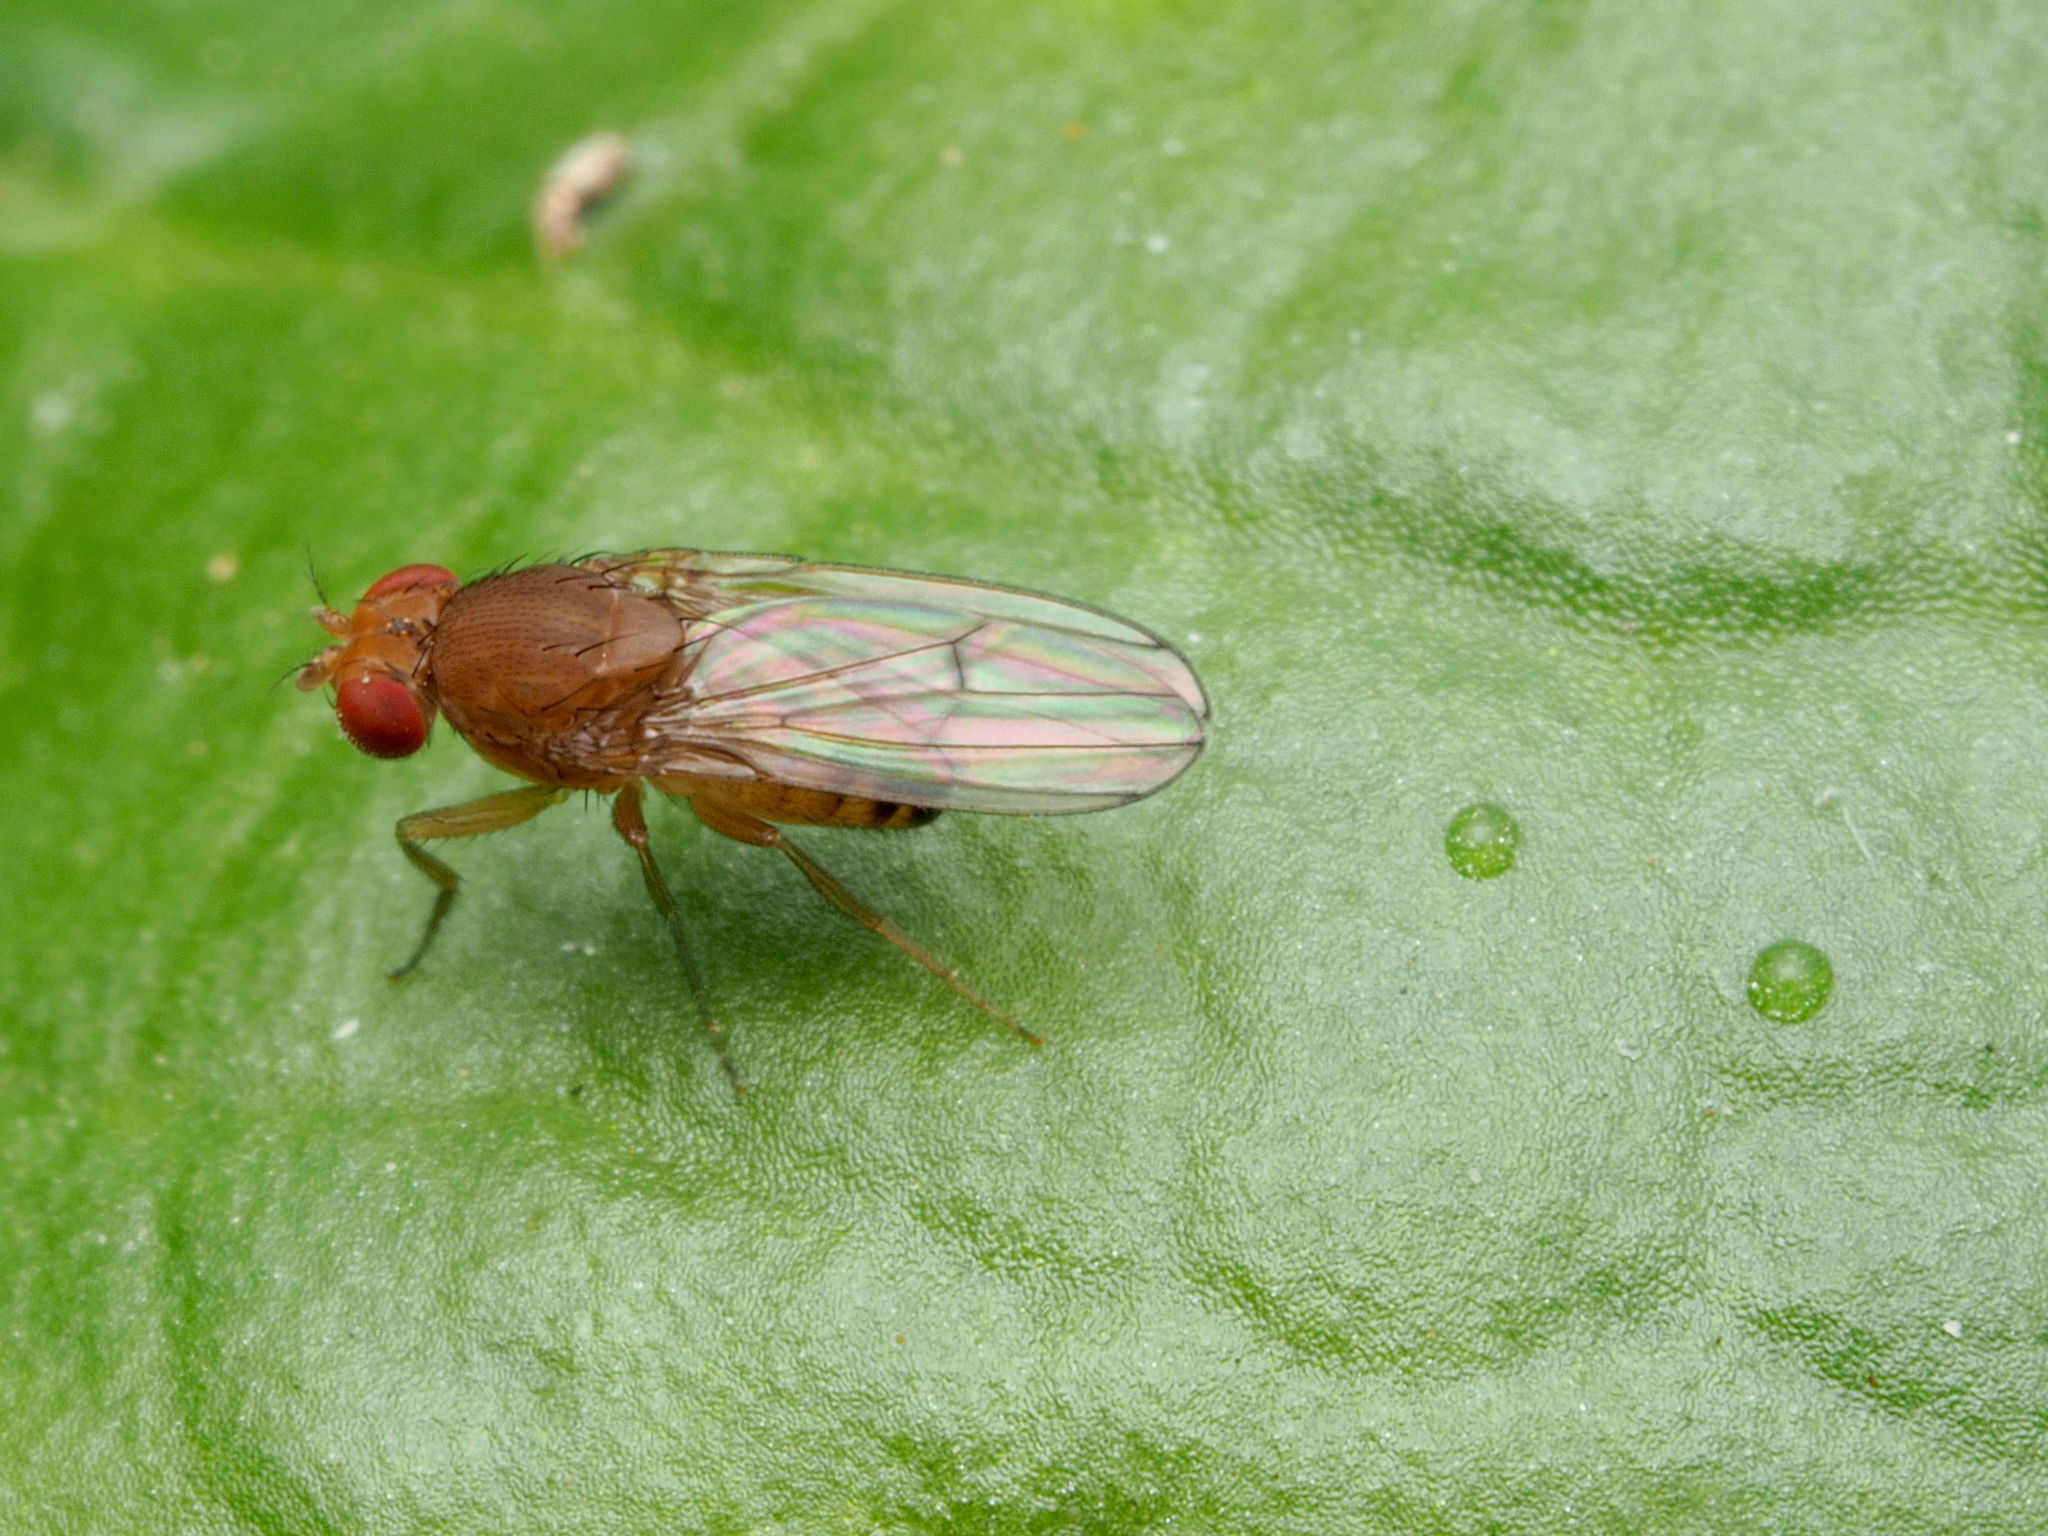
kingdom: Animalia
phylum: Arthropoda
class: Insecta
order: Diptera
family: Drosophilidae
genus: Drosophila
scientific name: Drosophila immigrans
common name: Pomace fly
